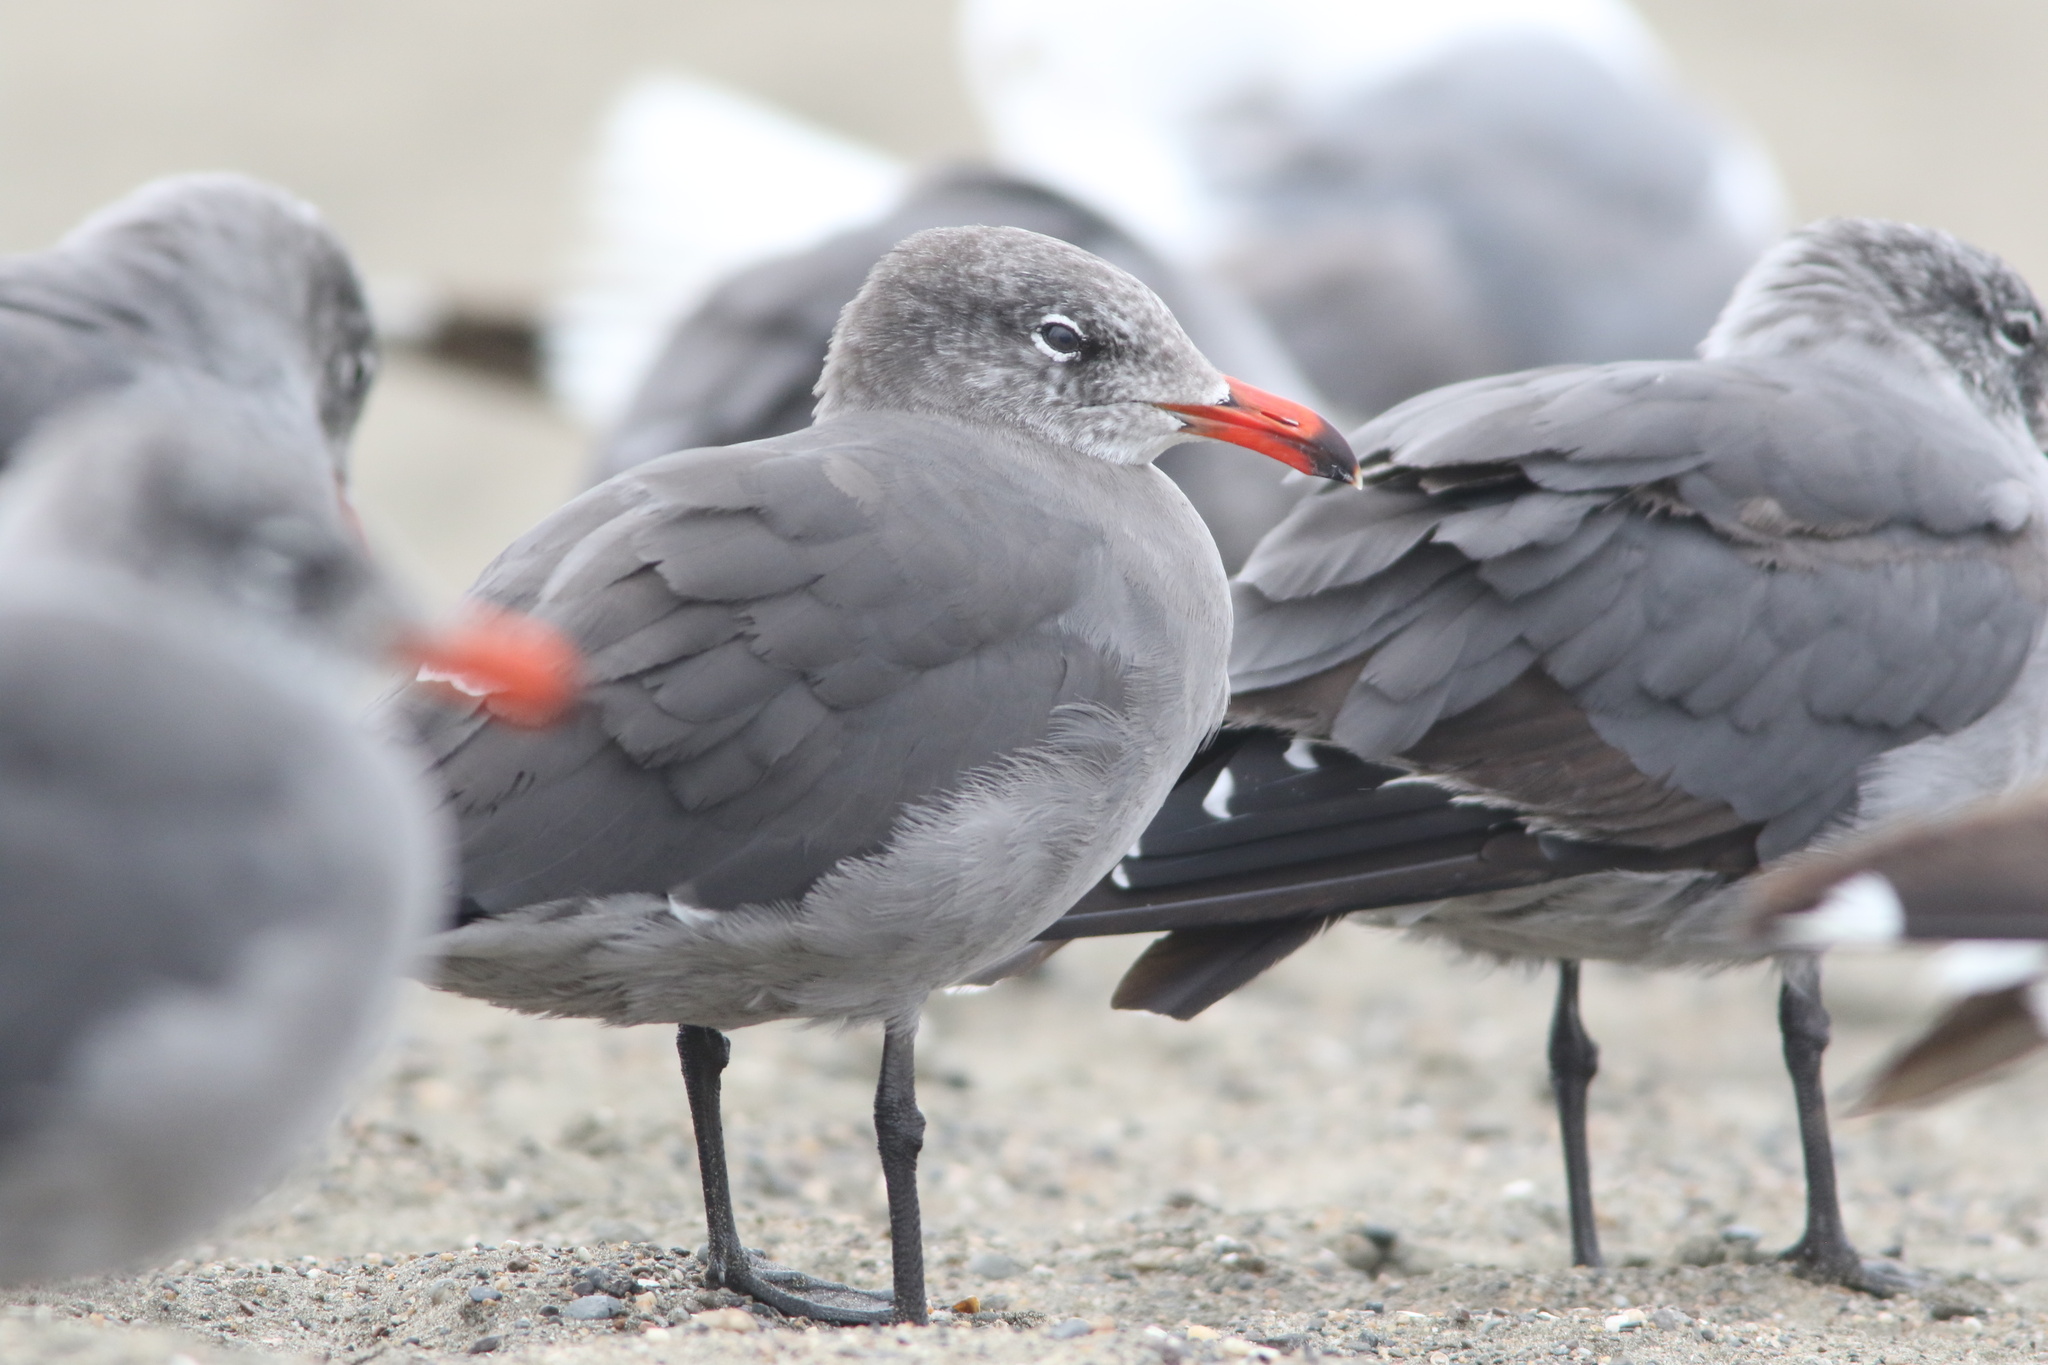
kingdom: Animalia
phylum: Chordata
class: Aves
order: Charadriiformes
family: Laridae
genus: Larus
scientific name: Larus heermanni
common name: Heermann's gull
